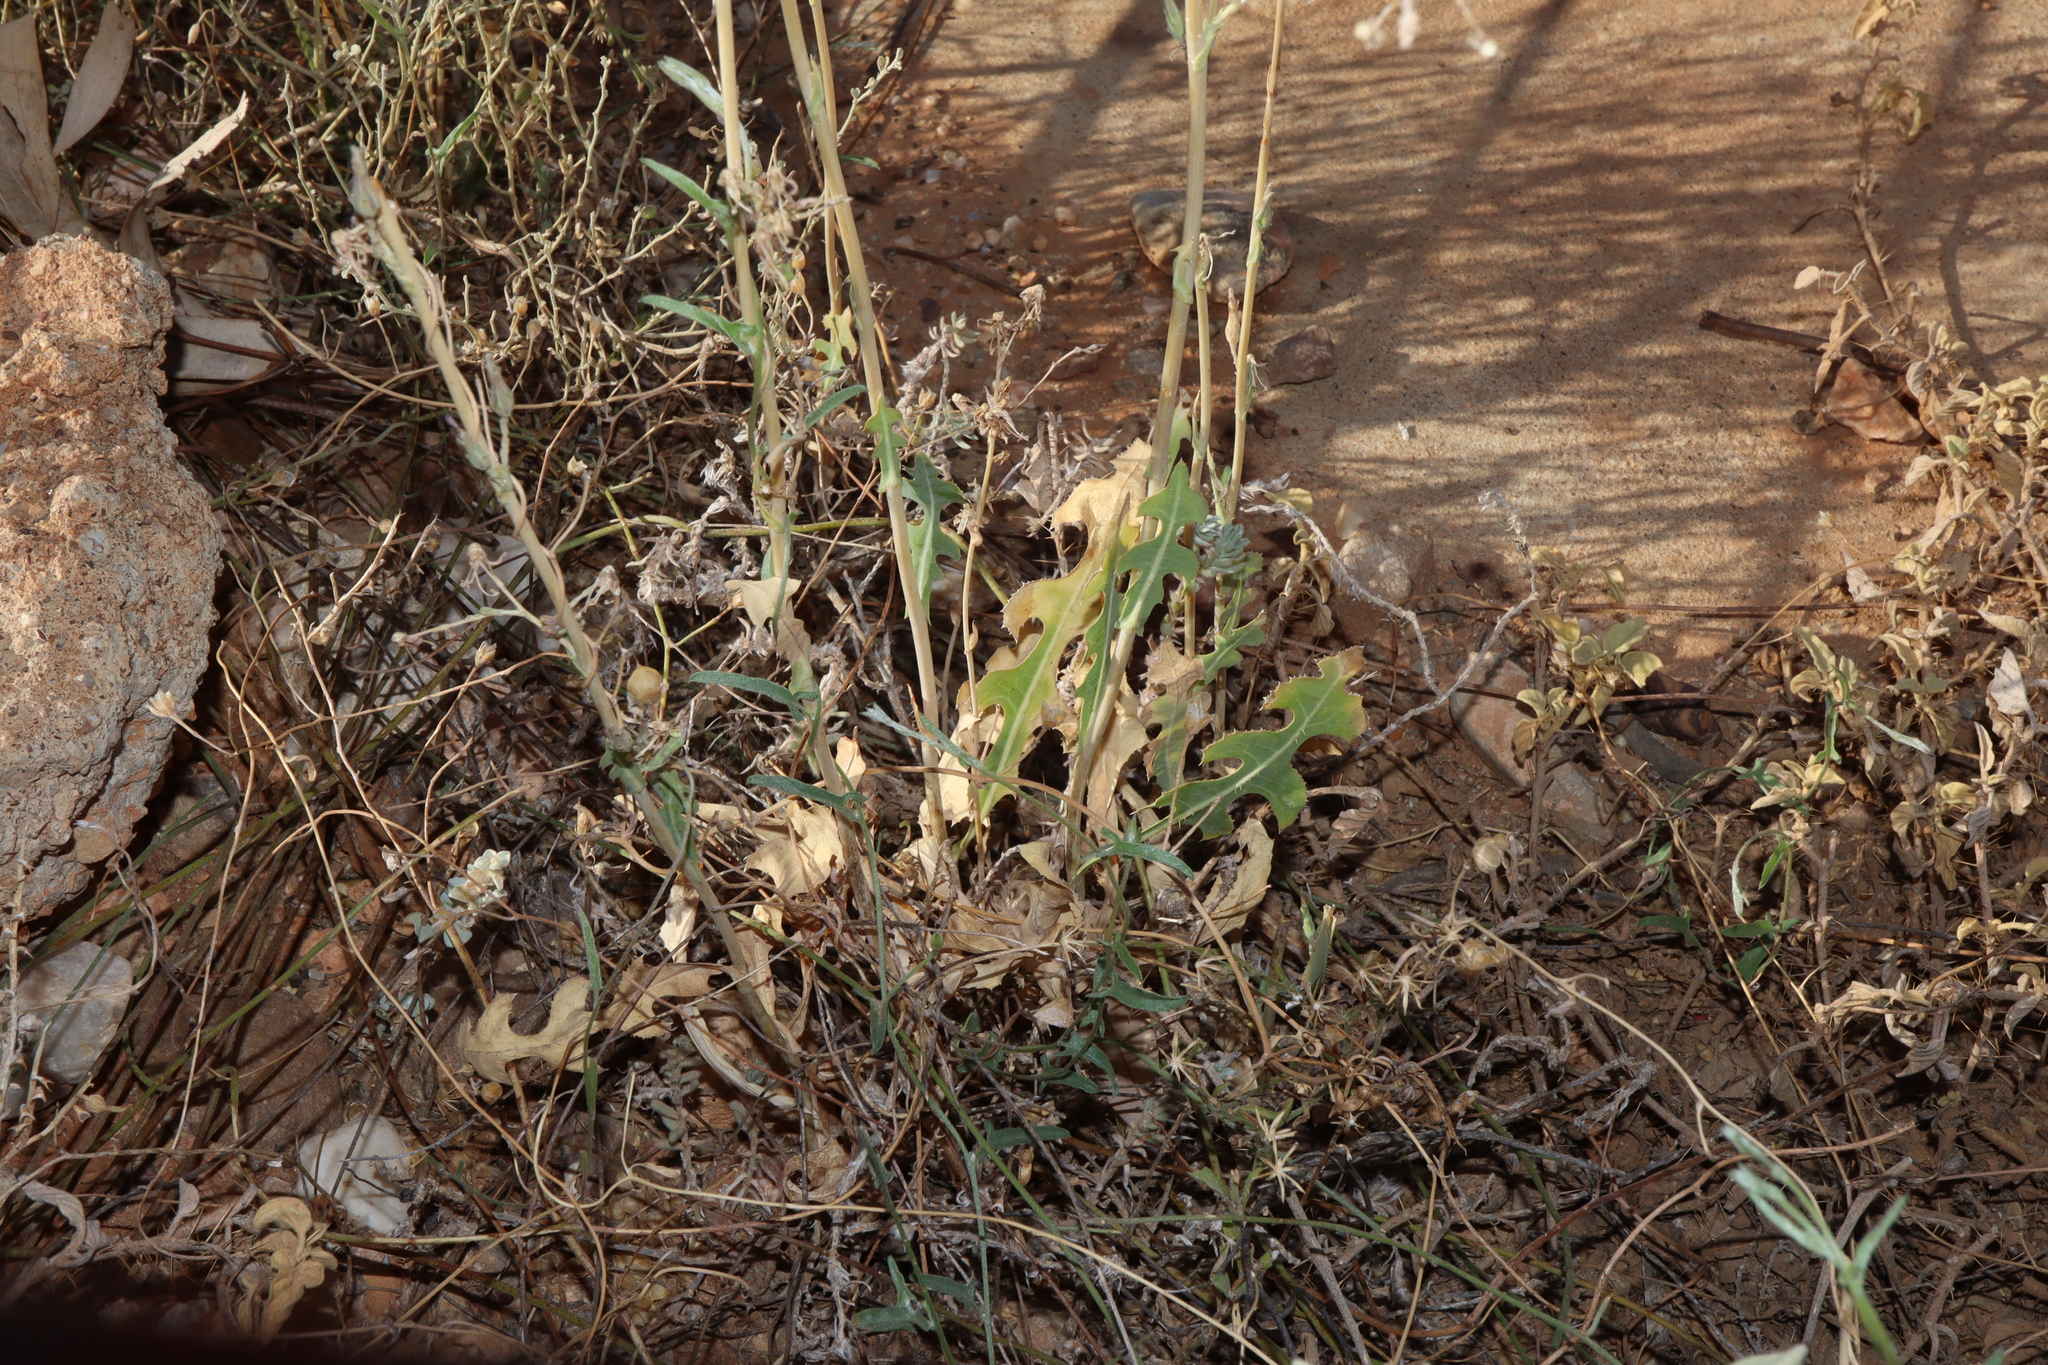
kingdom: Plantae
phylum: Tracheophyta
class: Magnoliopsida
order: Asterales
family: Asteraceae
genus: Lactuca
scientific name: Lactuca serriola
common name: Prickly lettuce
